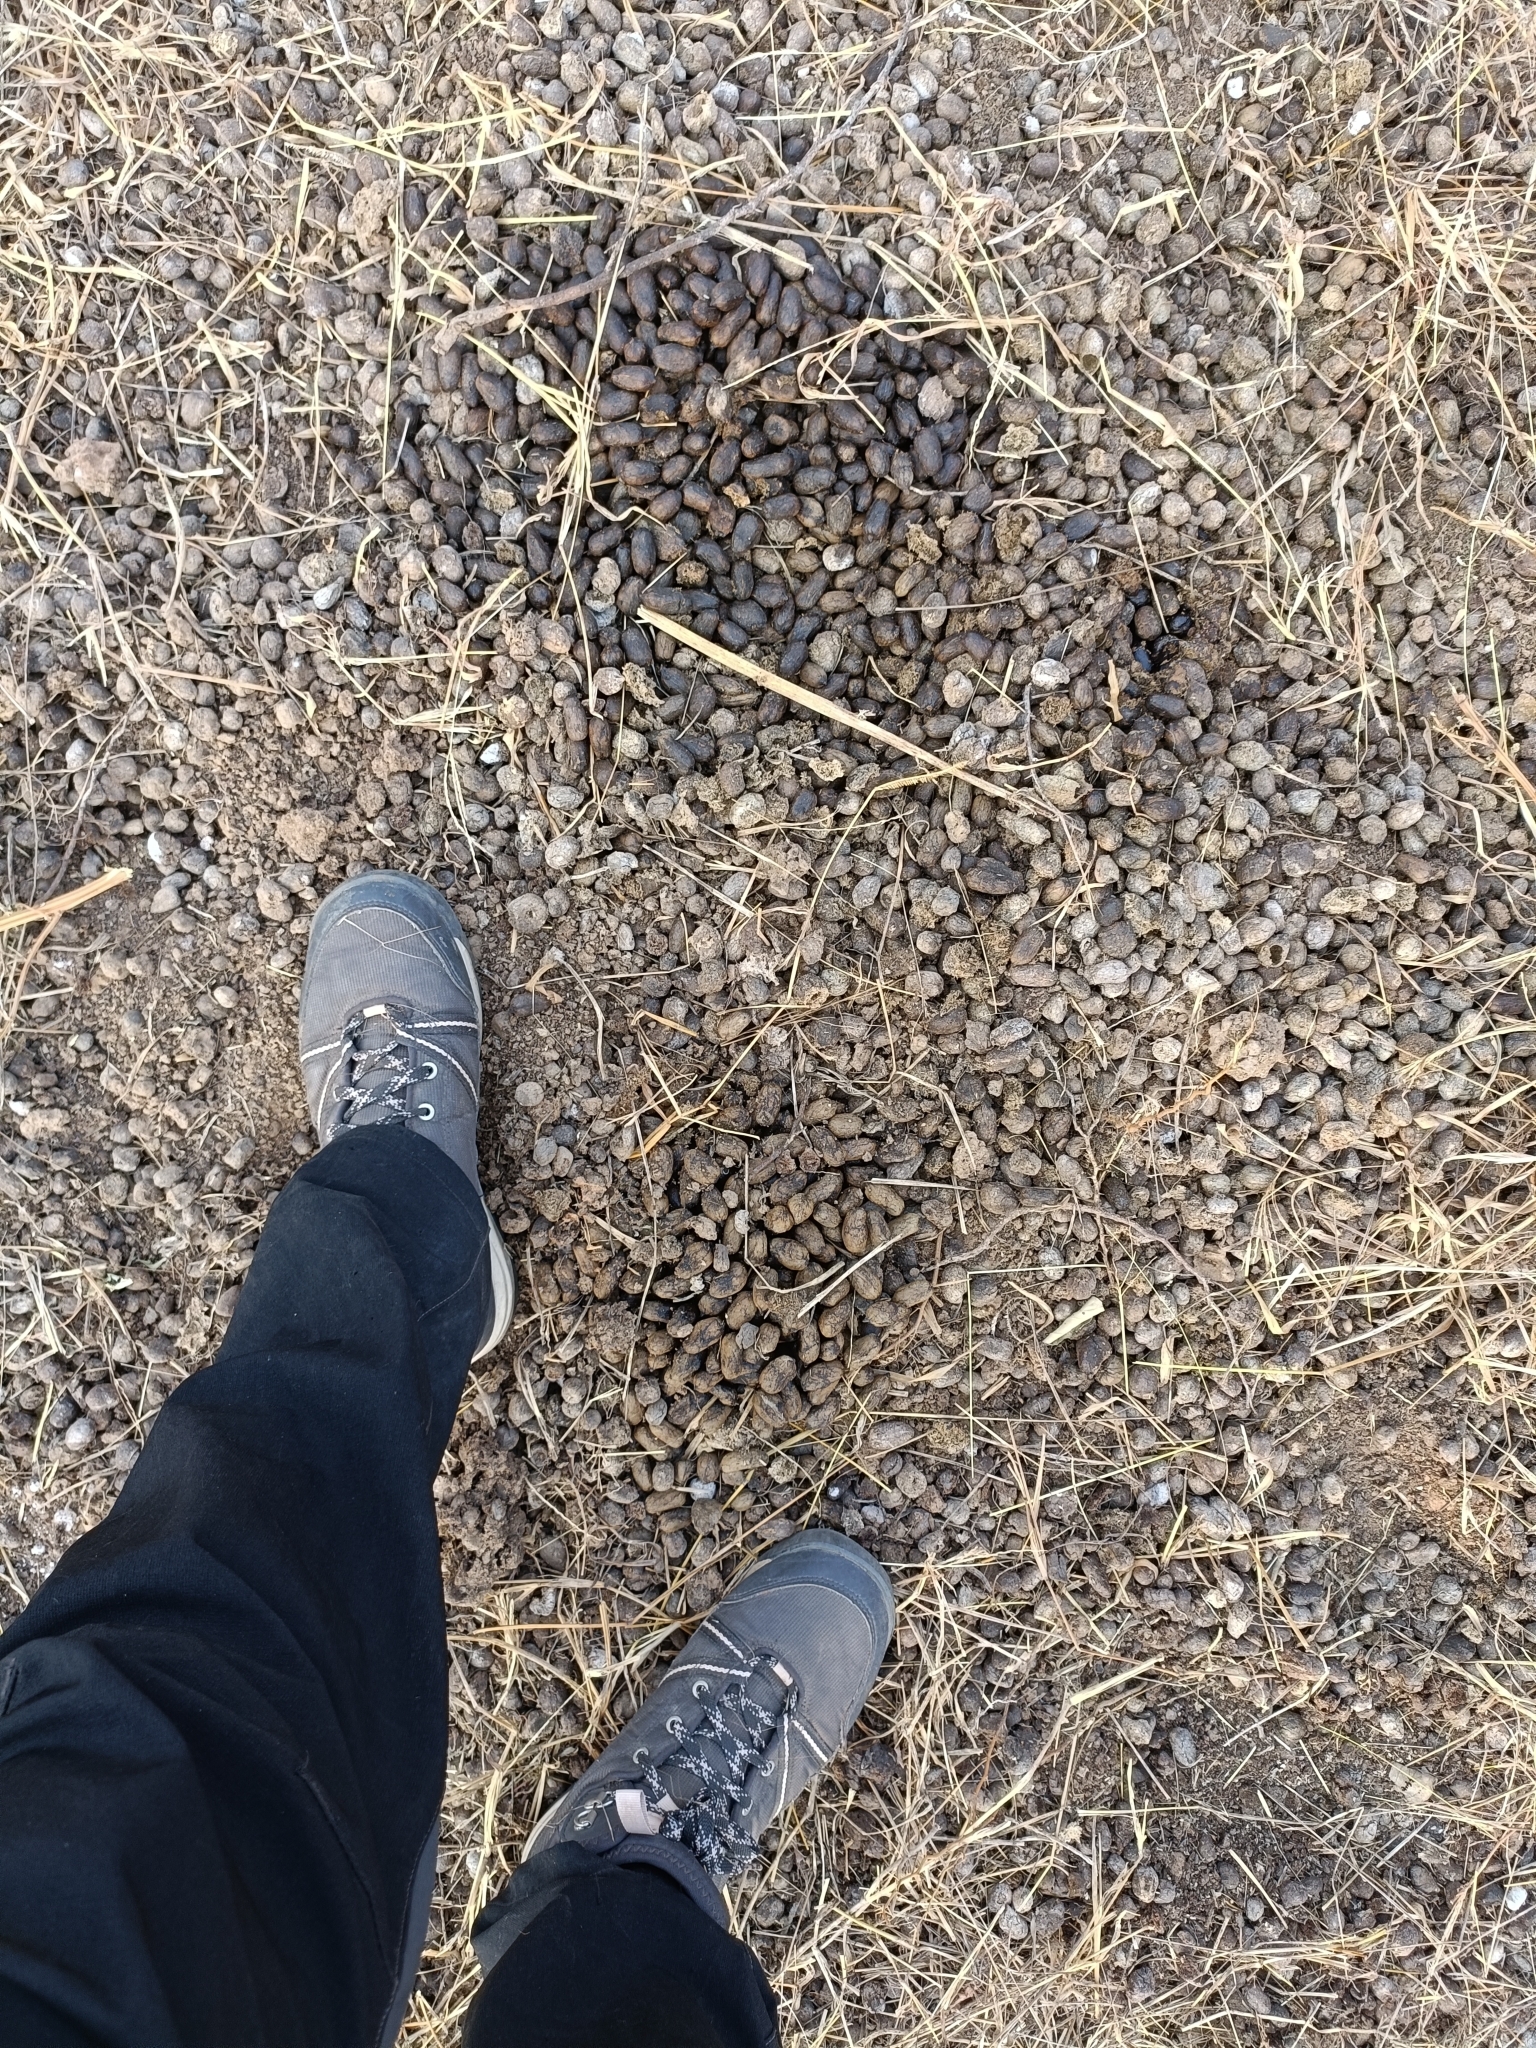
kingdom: Animalia
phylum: Chordata
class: Mammalia
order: Artiodactyla
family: Bovidae
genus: Boselaphus
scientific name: Boselaphus tragocamelus
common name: Nilgai
